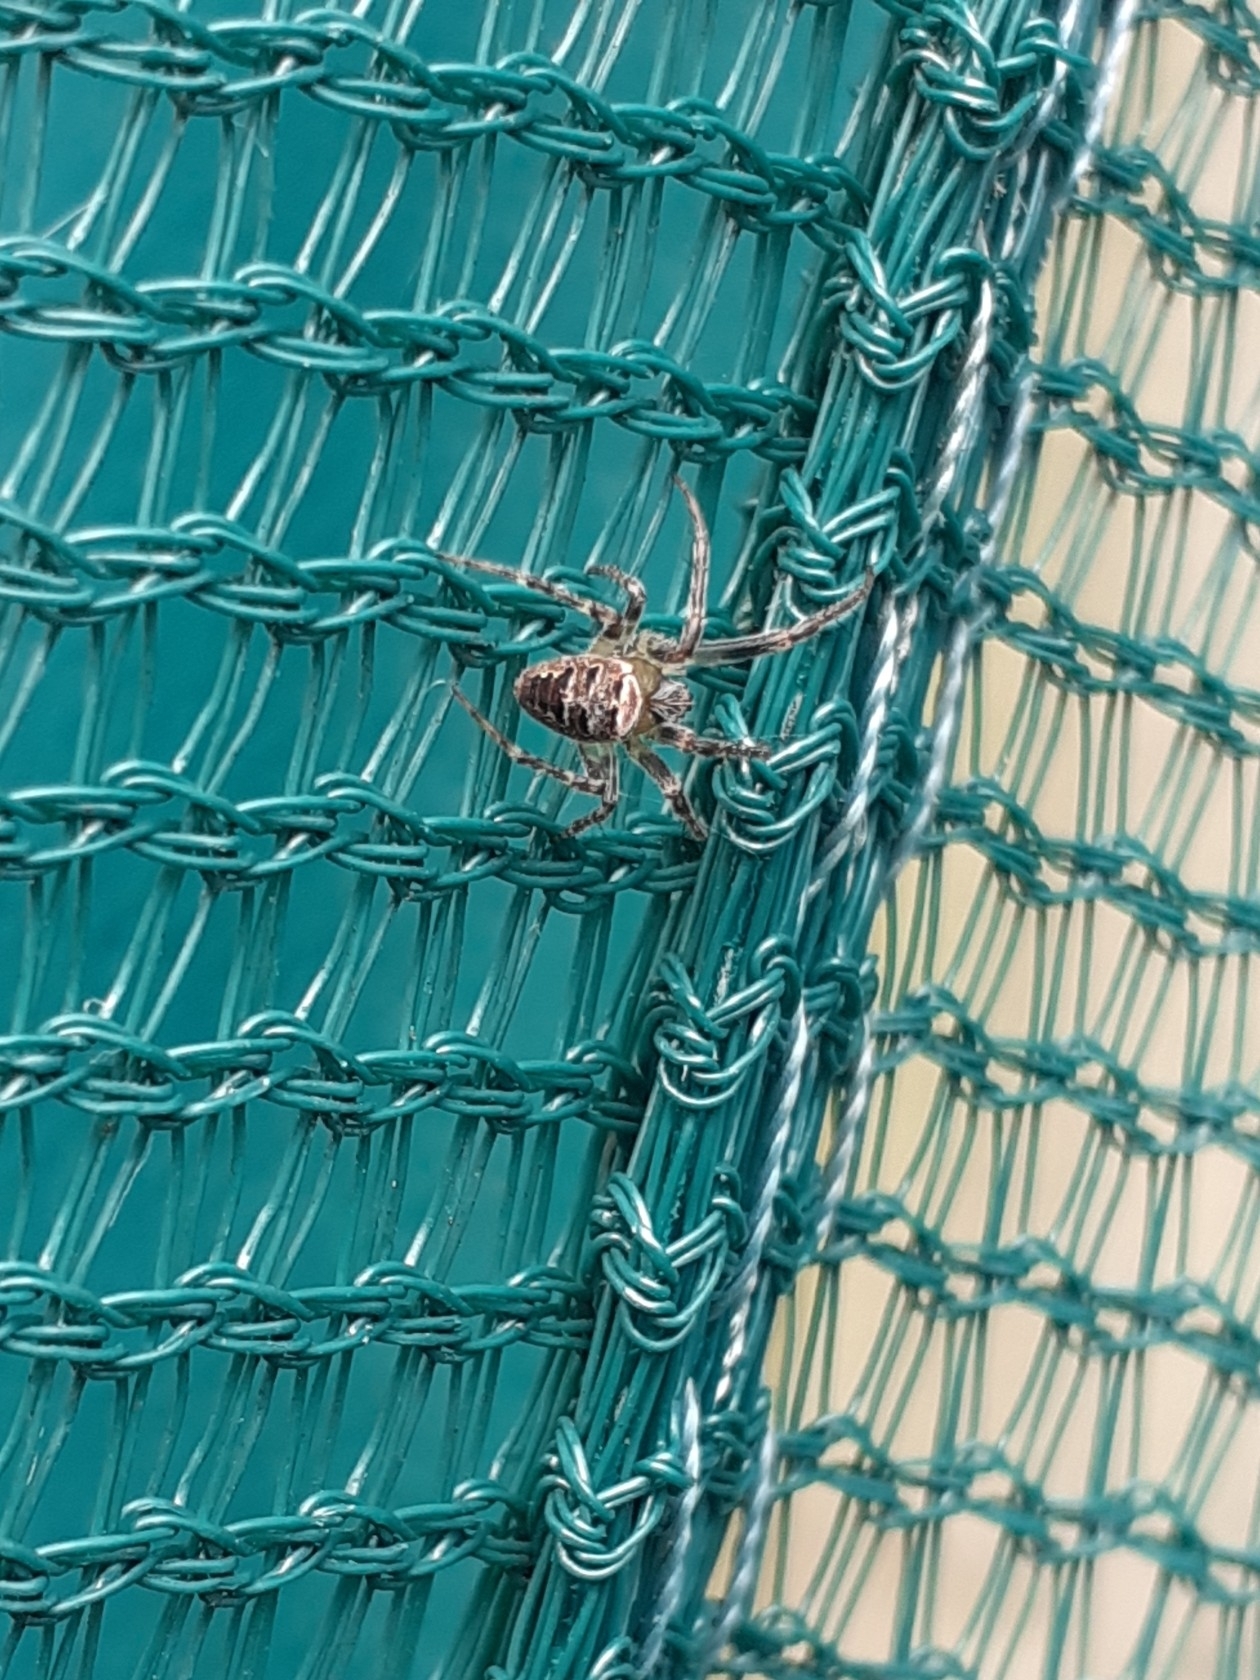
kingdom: Animalia
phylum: Arthropoda
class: Arachnida
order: Araneae
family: Araneidae
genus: Zilla
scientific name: Zilla diodia
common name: Zilla diodia
